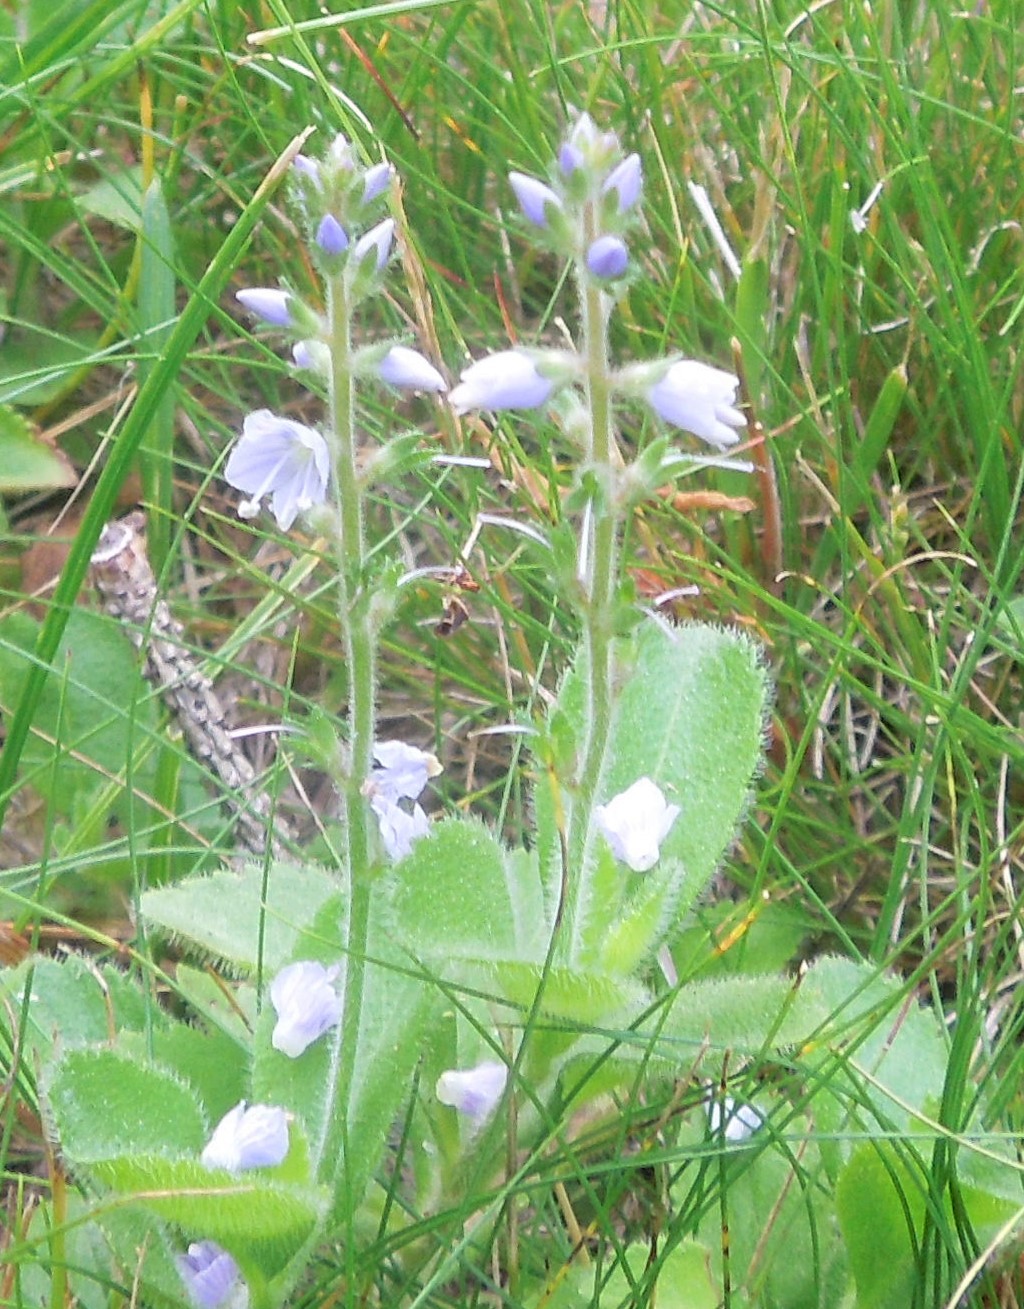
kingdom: Plantae
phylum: Tracheophyta
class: Magnoliopsida
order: Lamiales
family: Plantaginaceae
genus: Veronica
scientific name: Veronica officinalis
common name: Common speedwell
